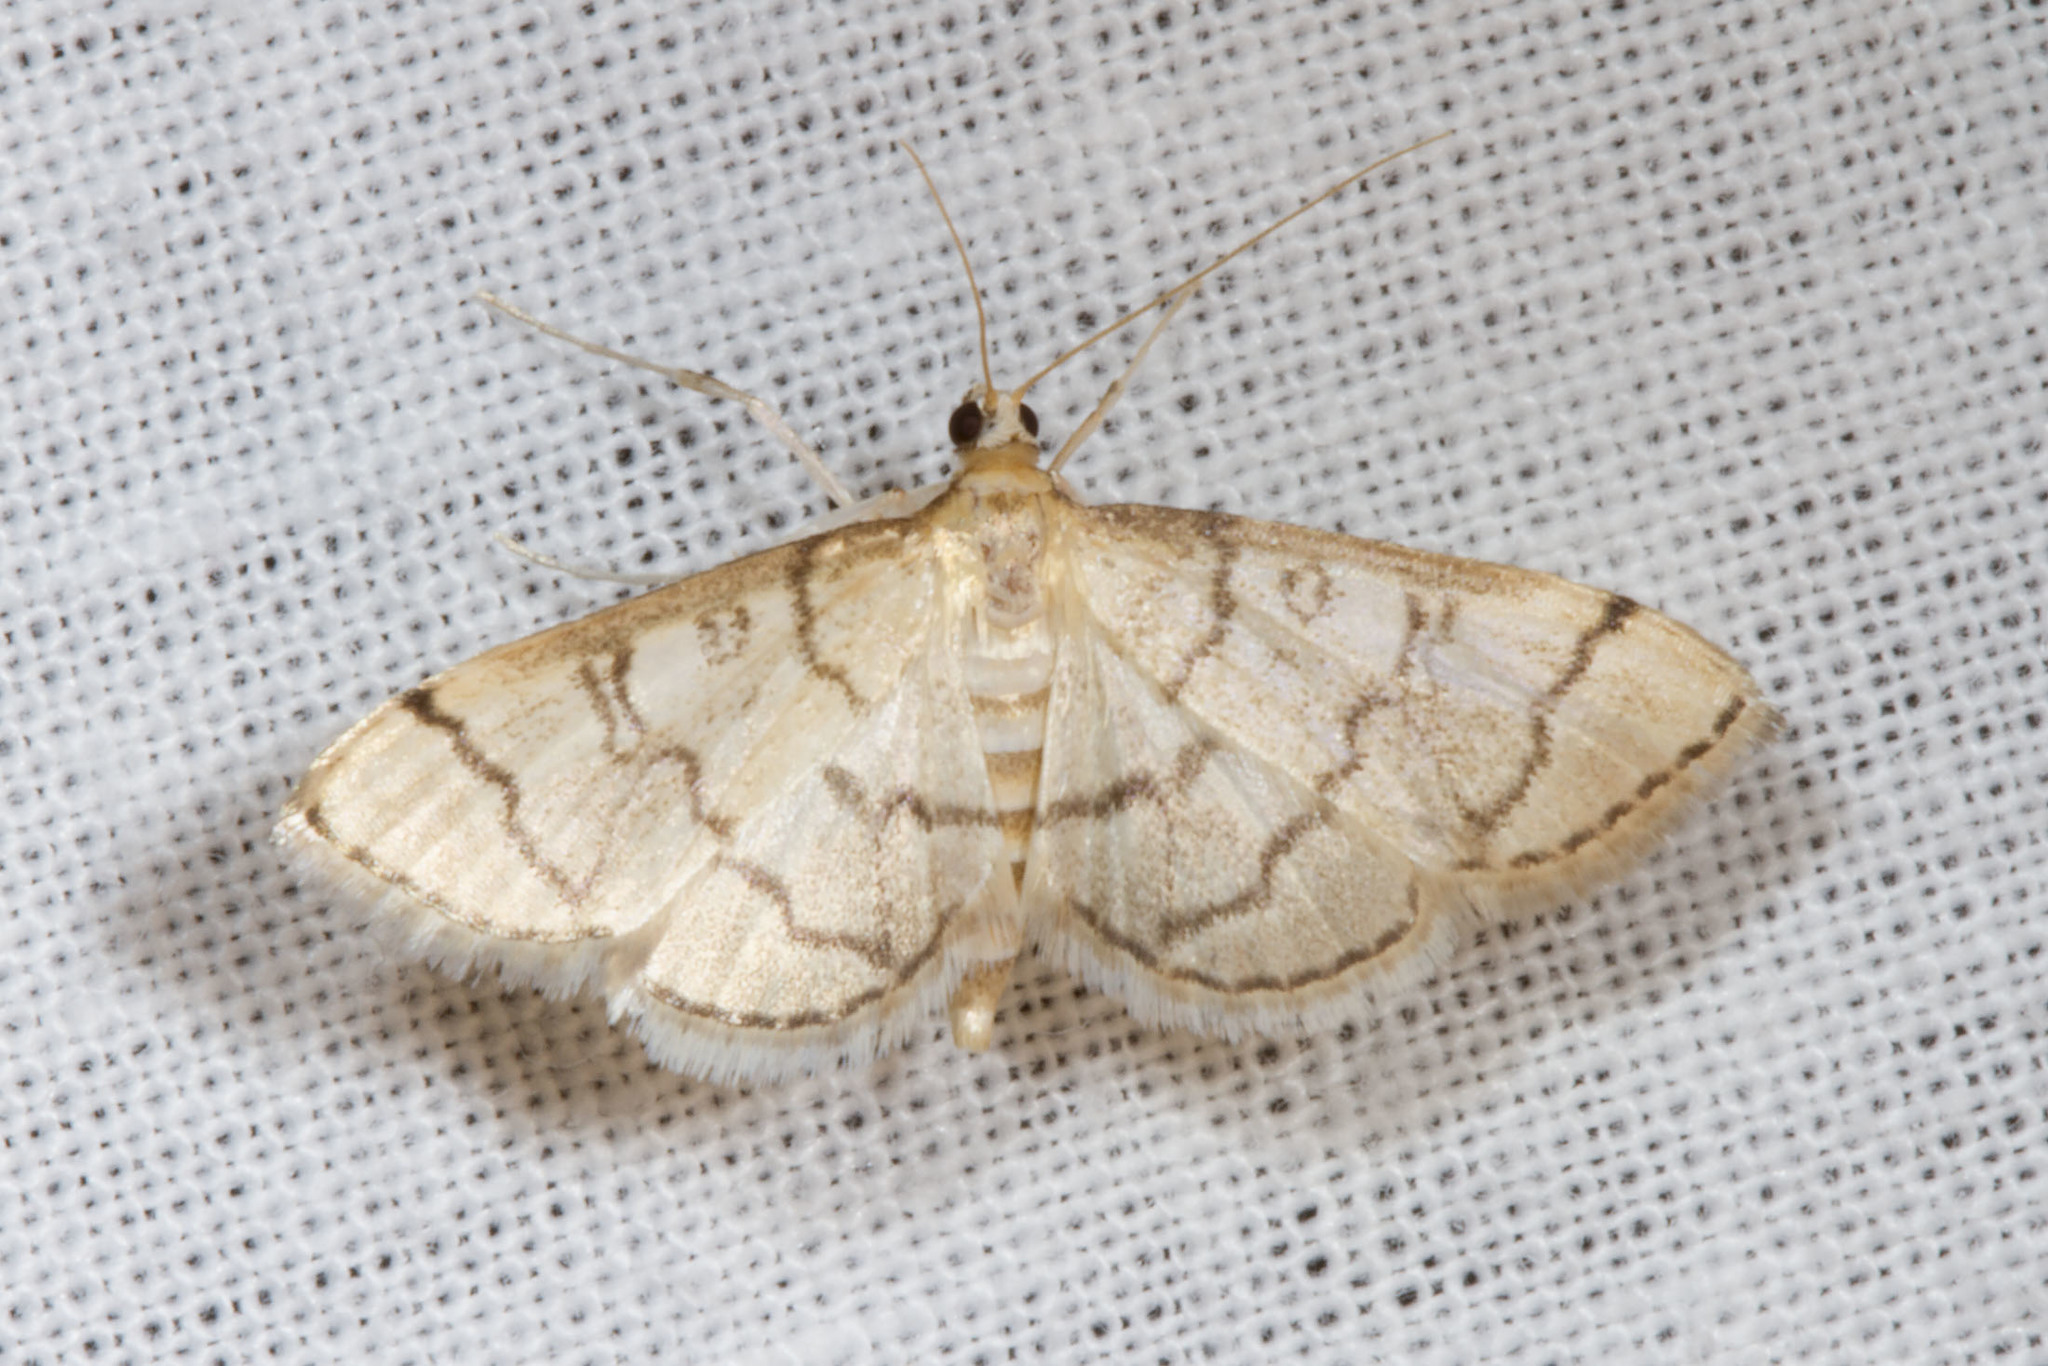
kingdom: Animalia
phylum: Arthropoda
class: Insecta
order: Lepidoptera
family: Crambidae
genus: Lamprosema
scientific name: Lamprosema Blepharomastix ranalis
